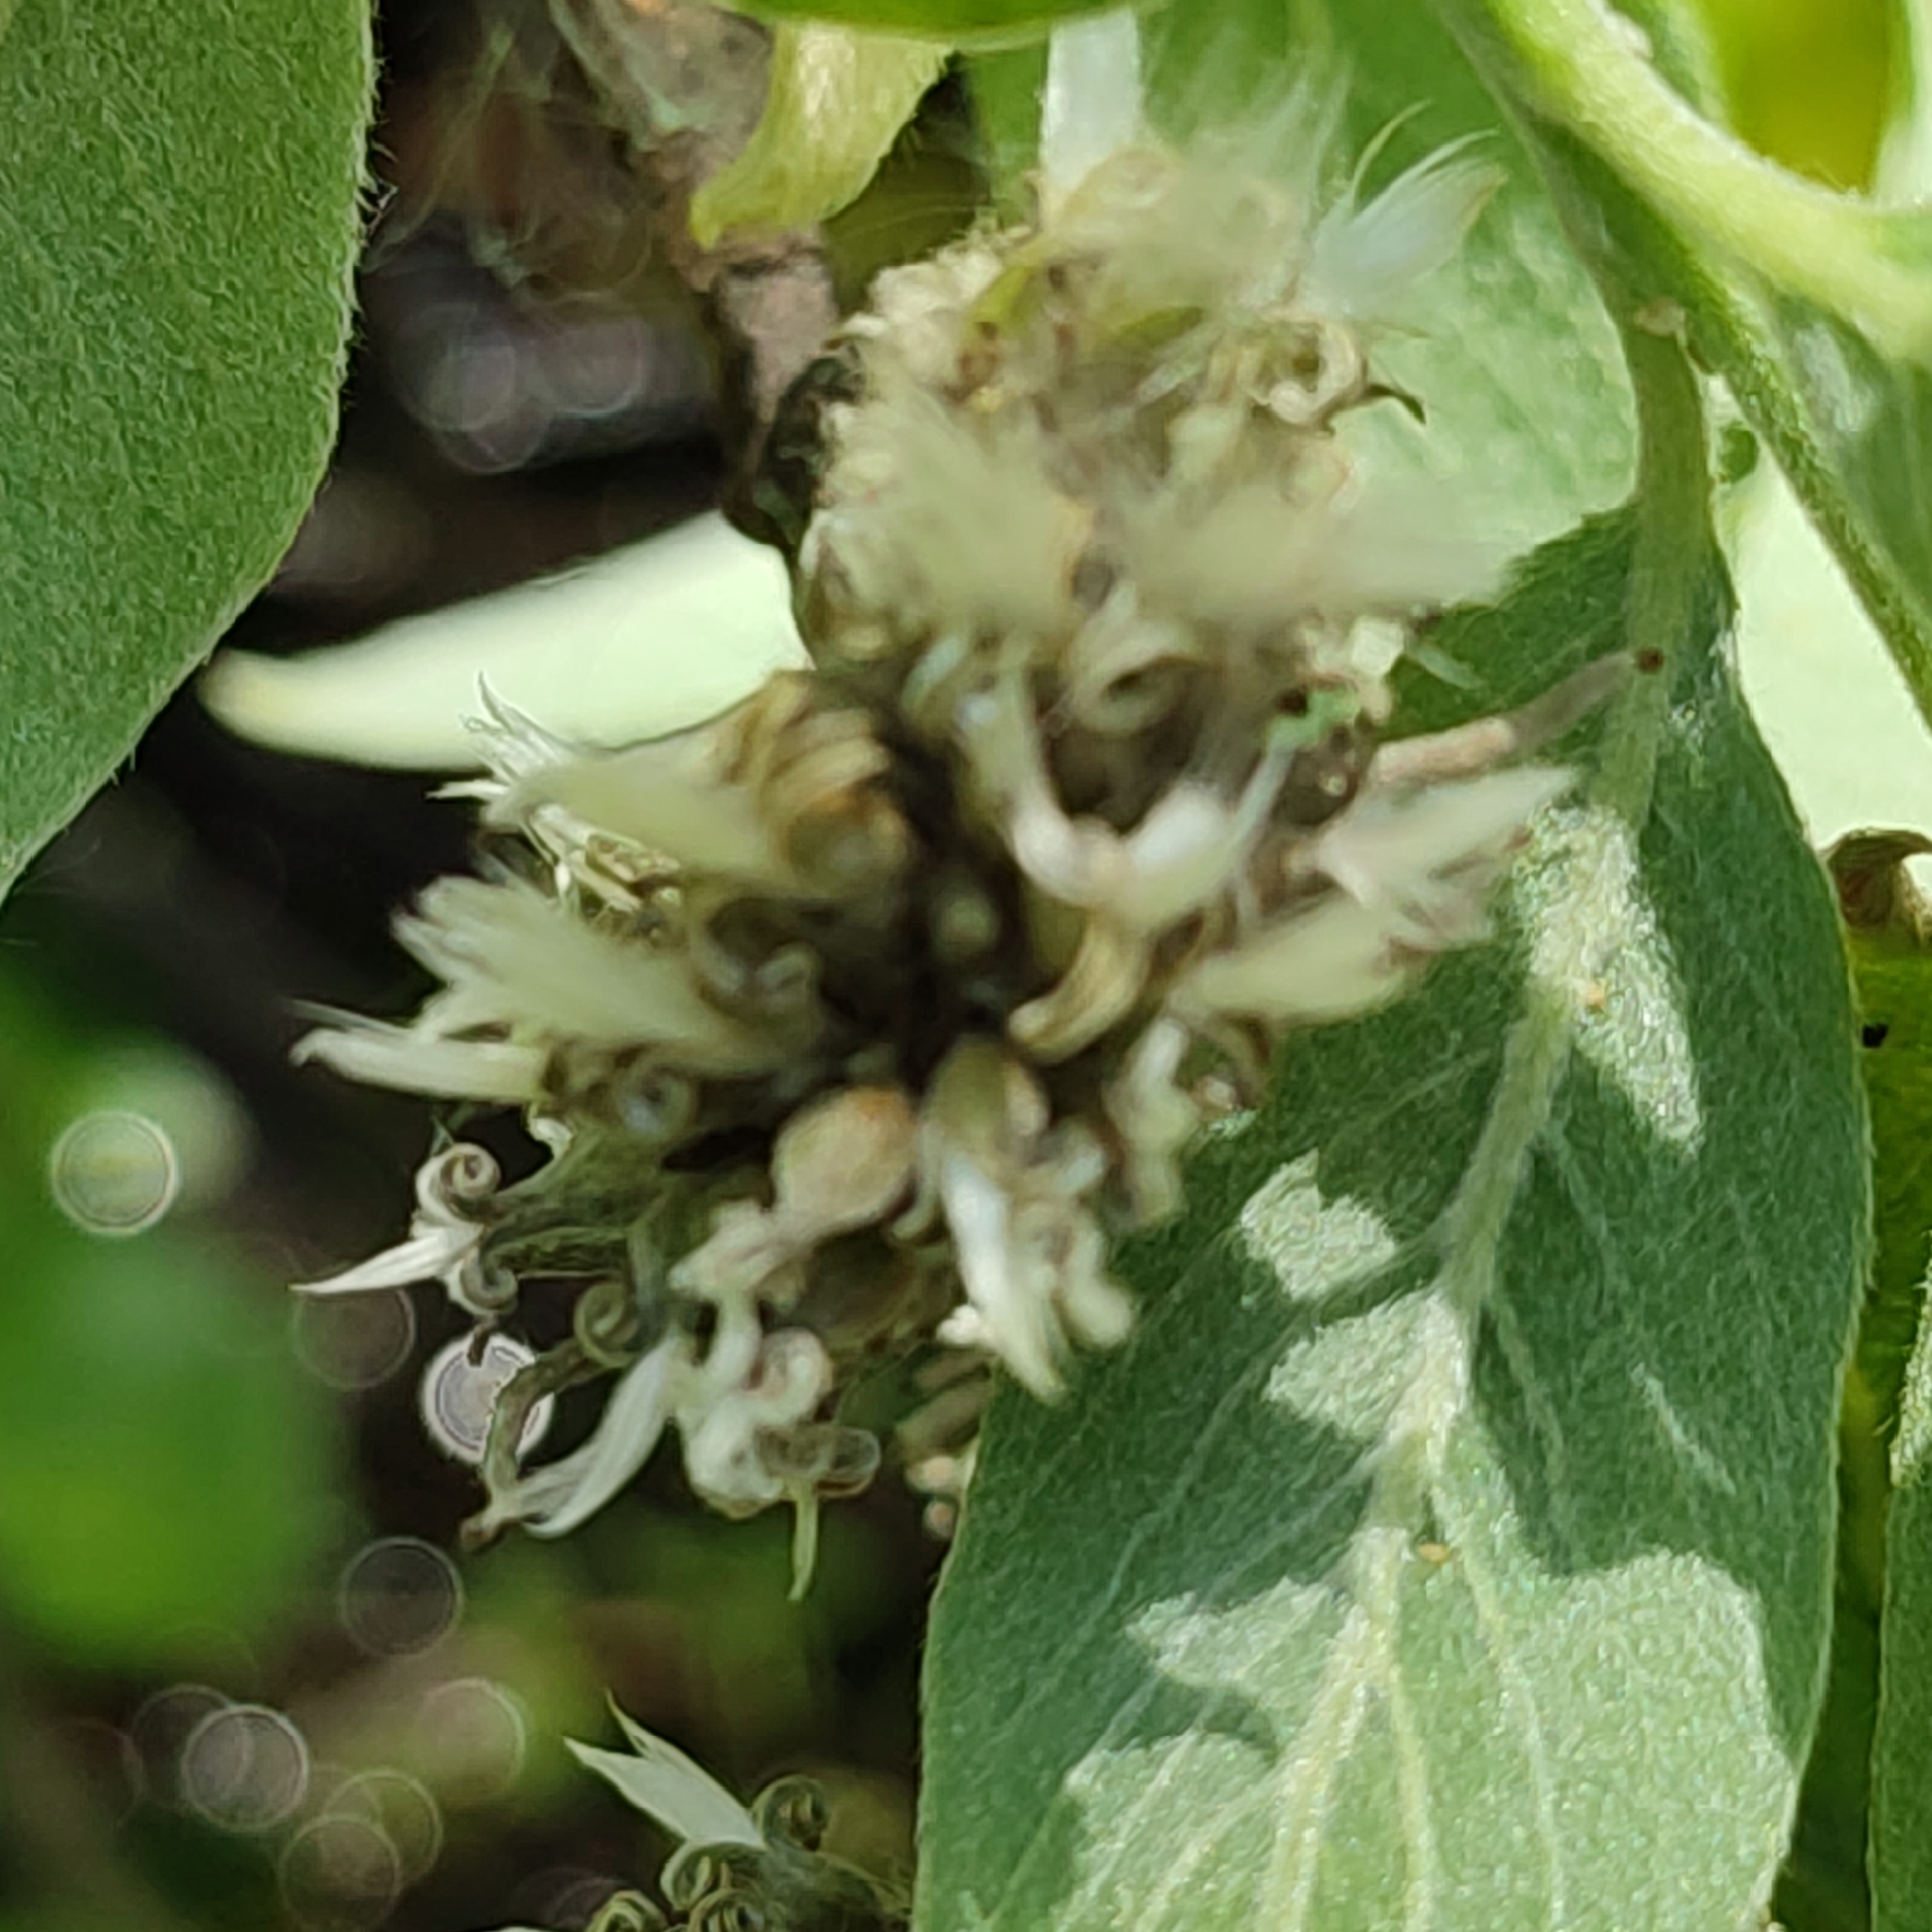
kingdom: Plantae
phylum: Tracheophyta
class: Magnoliopsida
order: Malpighiales
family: Salicaceae
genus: Salix
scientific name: Salix caprea
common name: Goat willow
